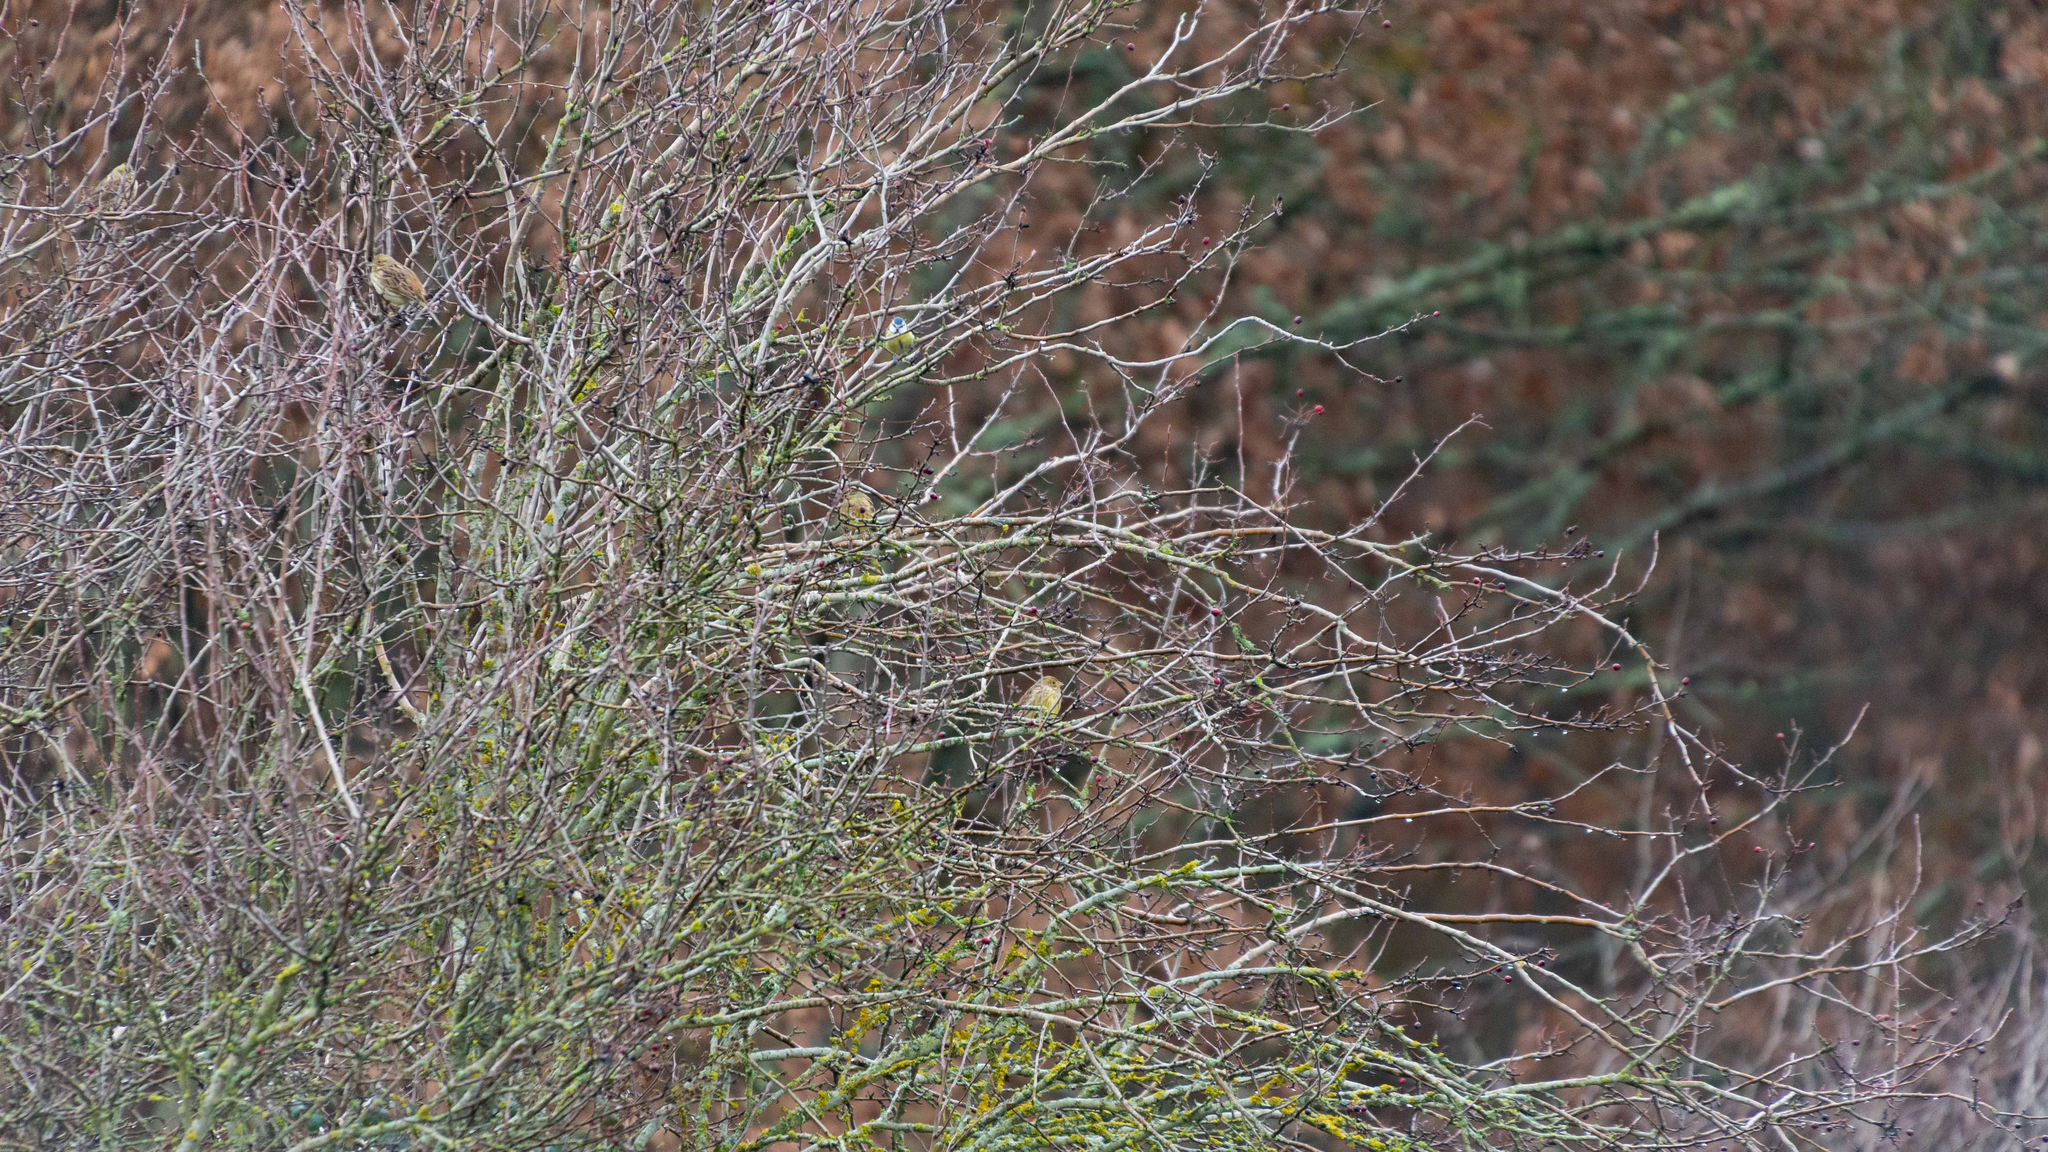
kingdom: Animalia
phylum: Chordata
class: Aves
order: Passeriformes
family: Paridae
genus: Cyanistes
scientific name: Cyanistes caeruleus
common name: Eurasian blue tit
